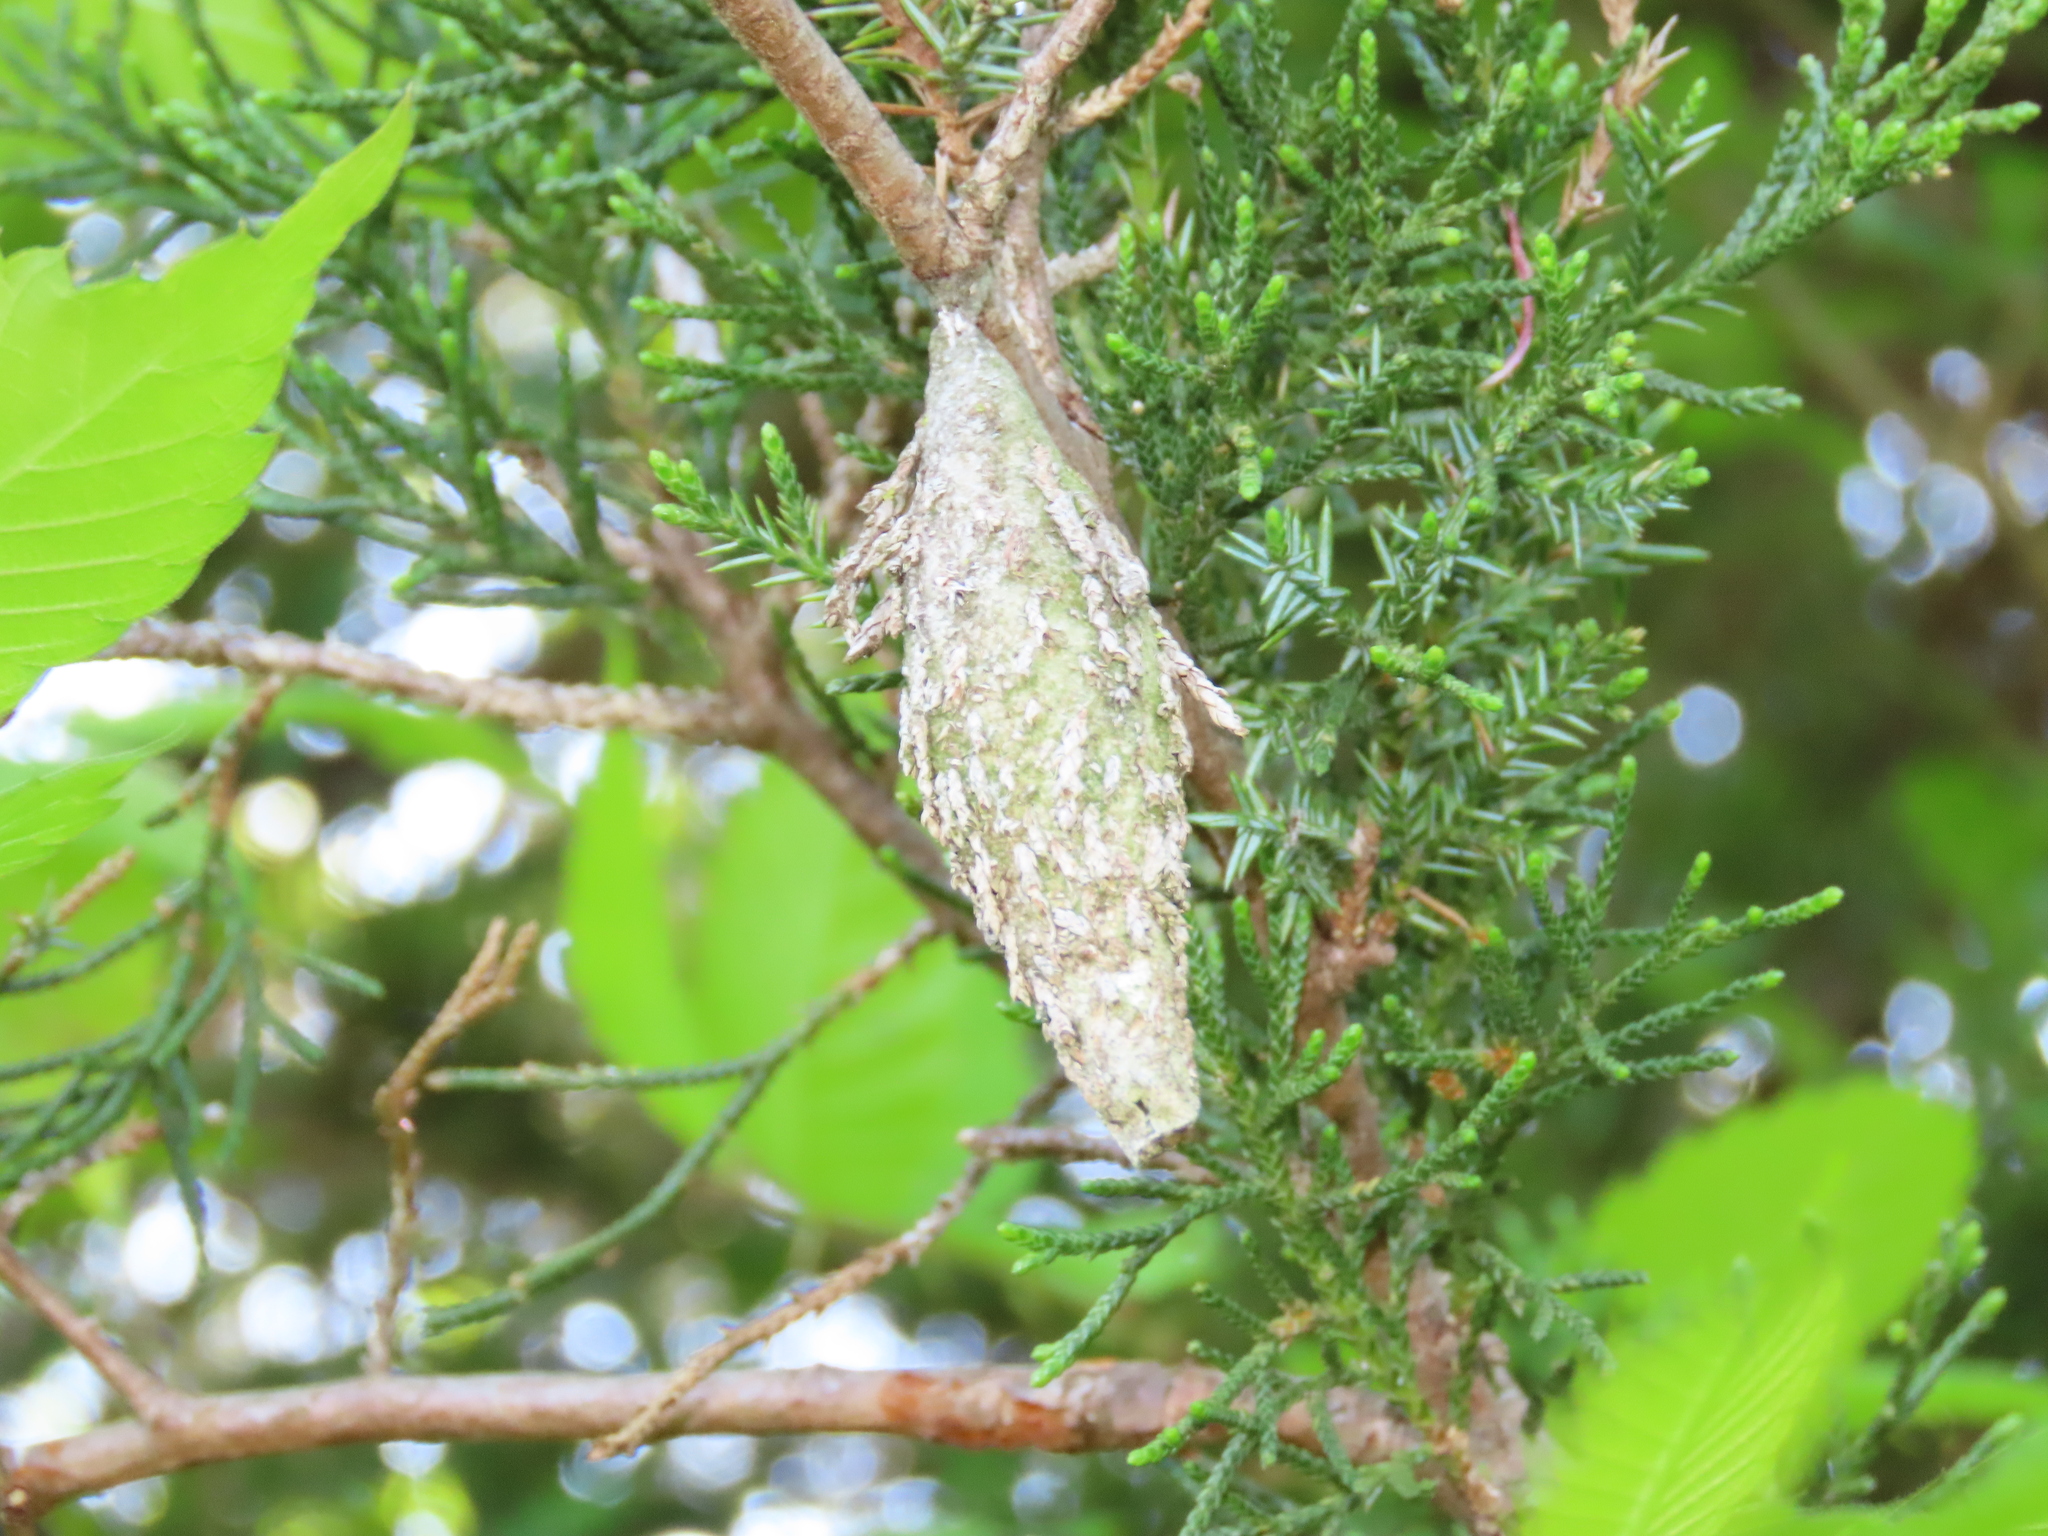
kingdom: Animalia
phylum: Arthropoda
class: Insecta
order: Lepidoptera
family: Psychidae
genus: Thyridopteryx
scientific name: Thyridopteryx ephemeraeformis
